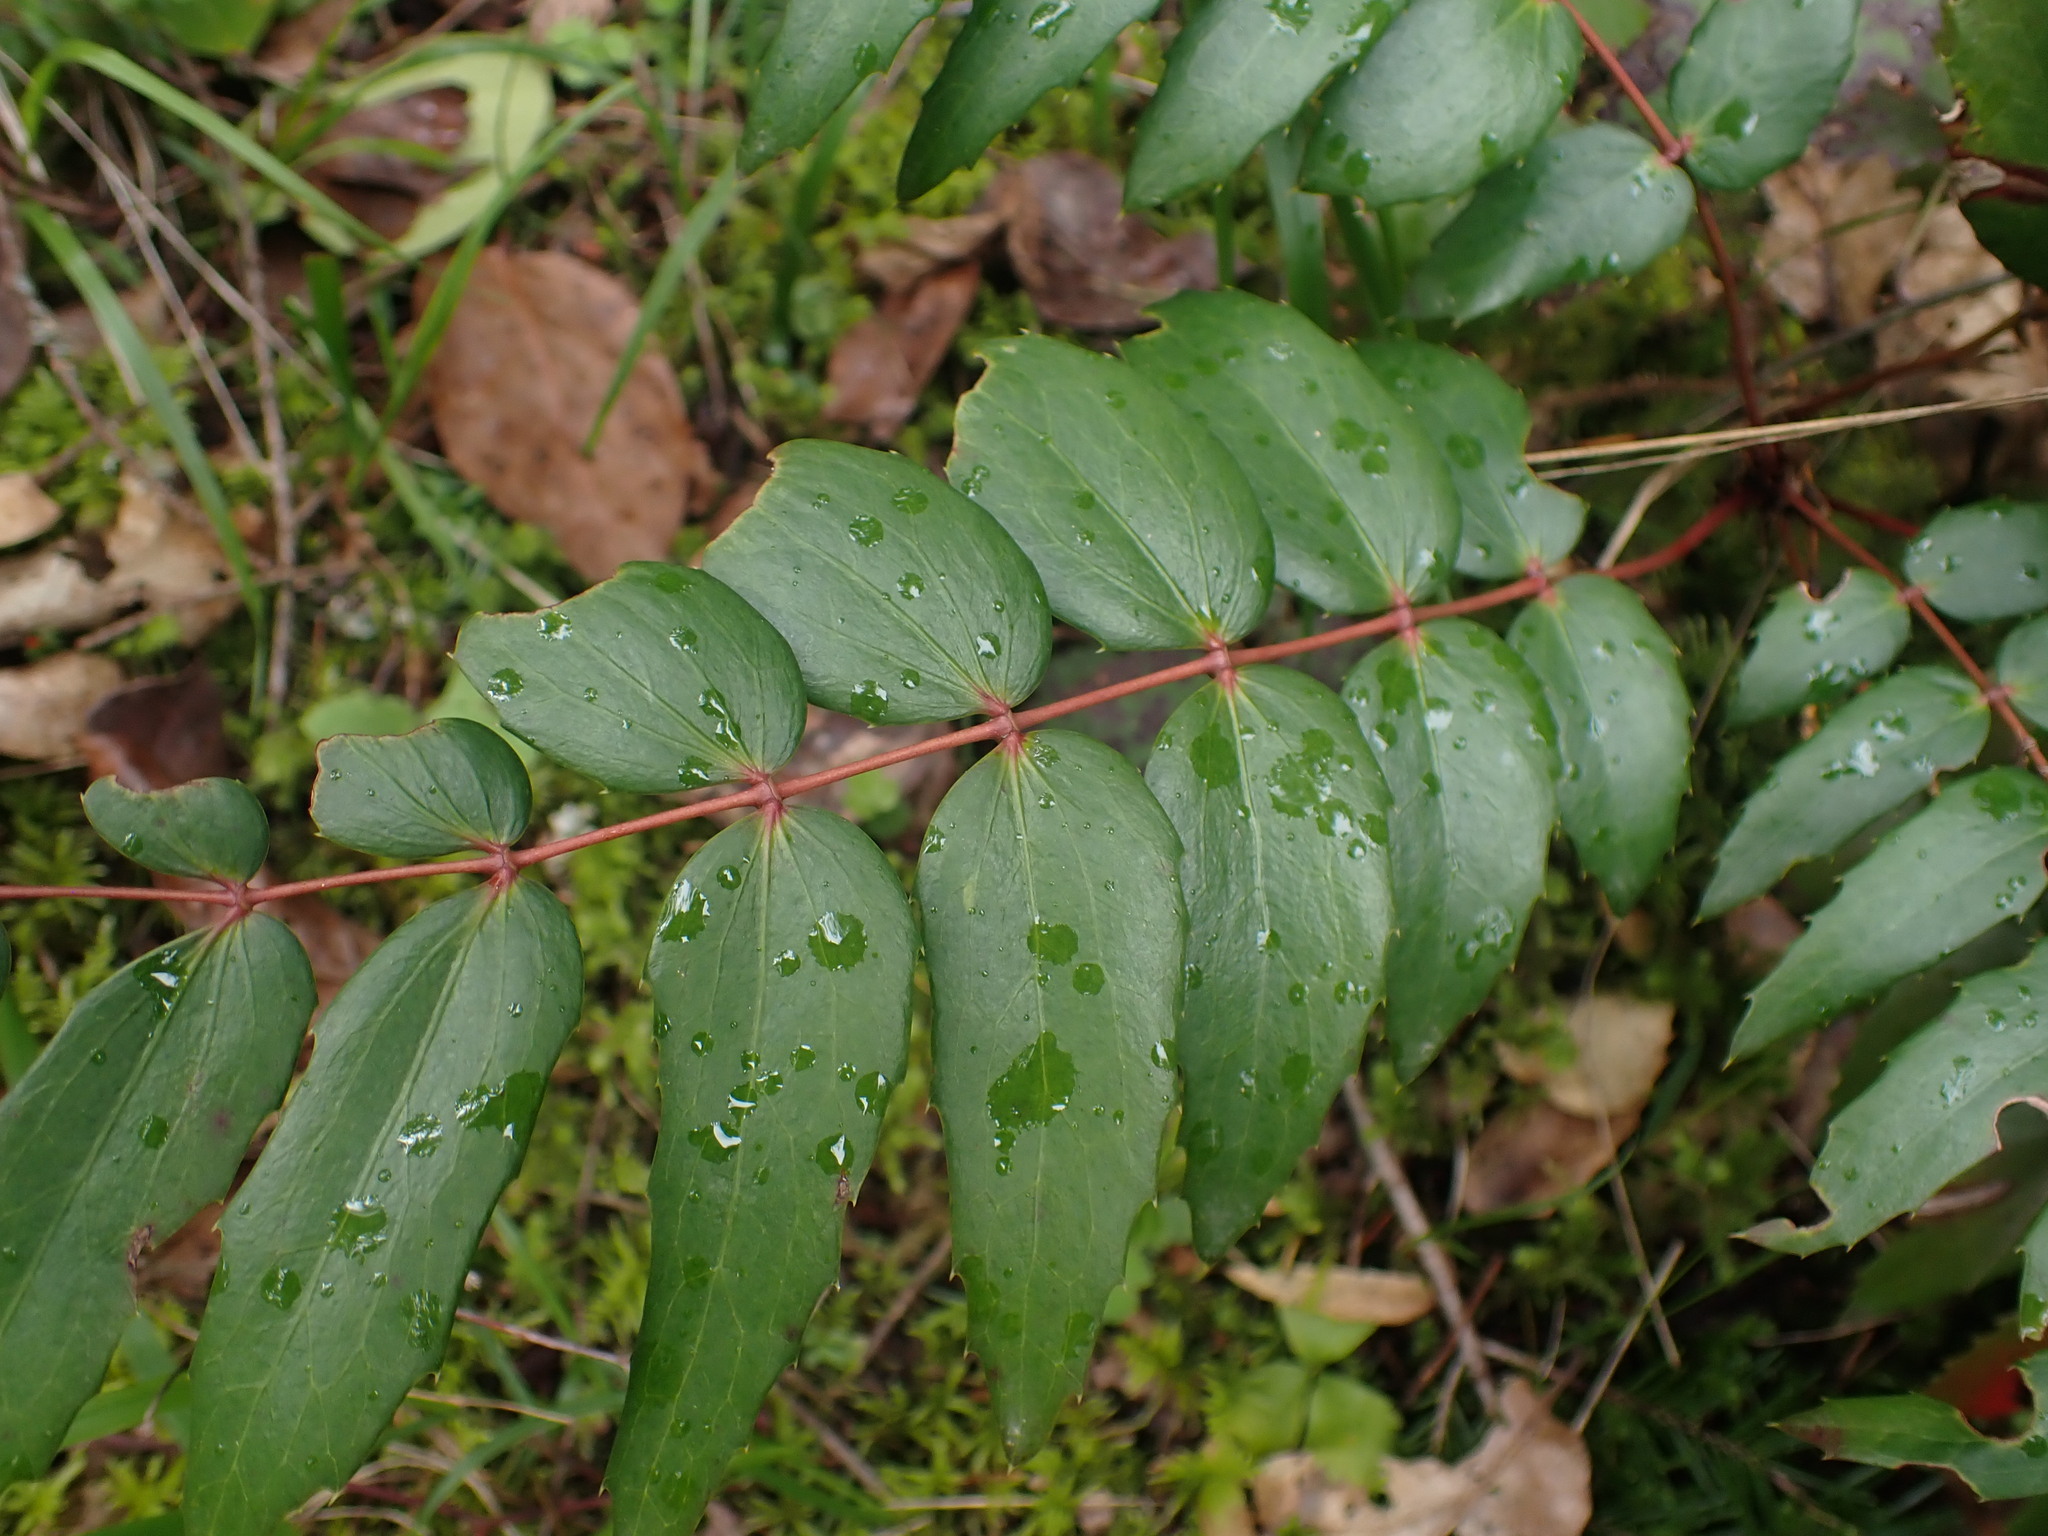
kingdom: Plantae
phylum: Tracheophyta
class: Magnoliopsida
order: Ranunculales
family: Berberidaceae
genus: Mahonia
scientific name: Mahonia nervosa
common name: Cascade oregon-grape
